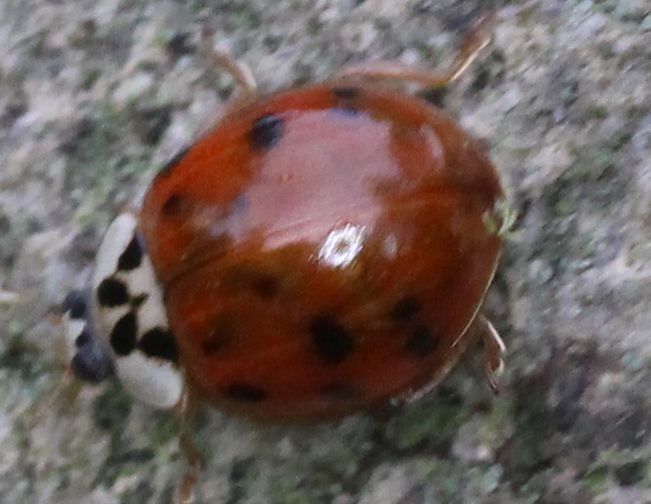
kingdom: Animalia
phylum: Arthropoda
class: Insecta
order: Coleoptera
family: Coccinellidae
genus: Harmonia
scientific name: Harmonia axyridis
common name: Harlequin ladybird
